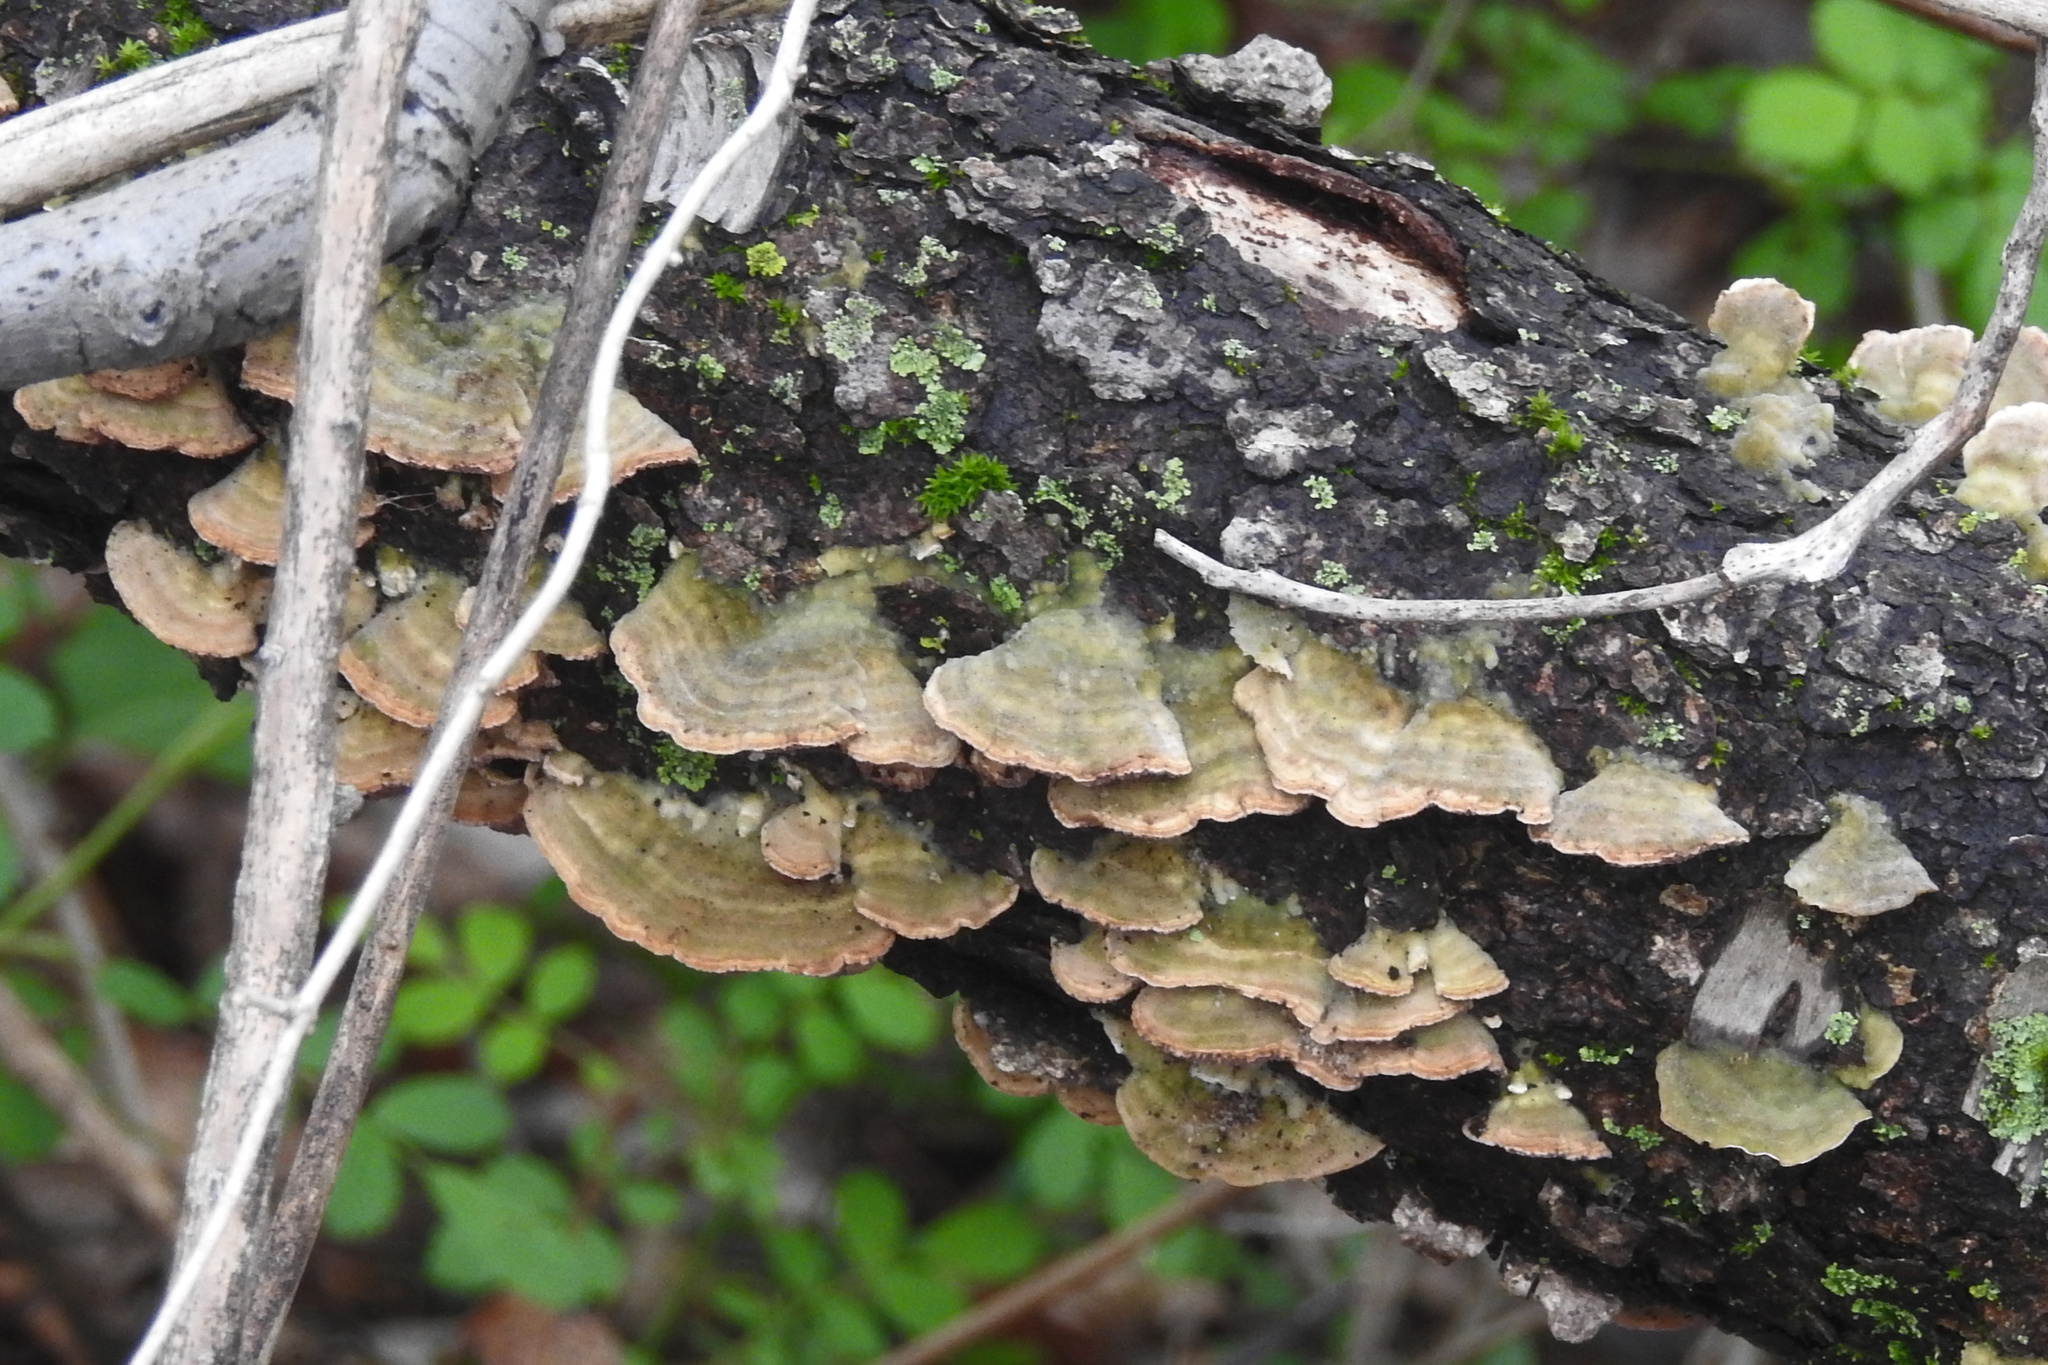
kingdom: Fungi
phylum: Basidiomycota
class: Agaricomycetes
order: Hymenochaetales
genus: Trichaptum
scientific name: Trichaptum biforme
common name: Violet-toothed polypore
